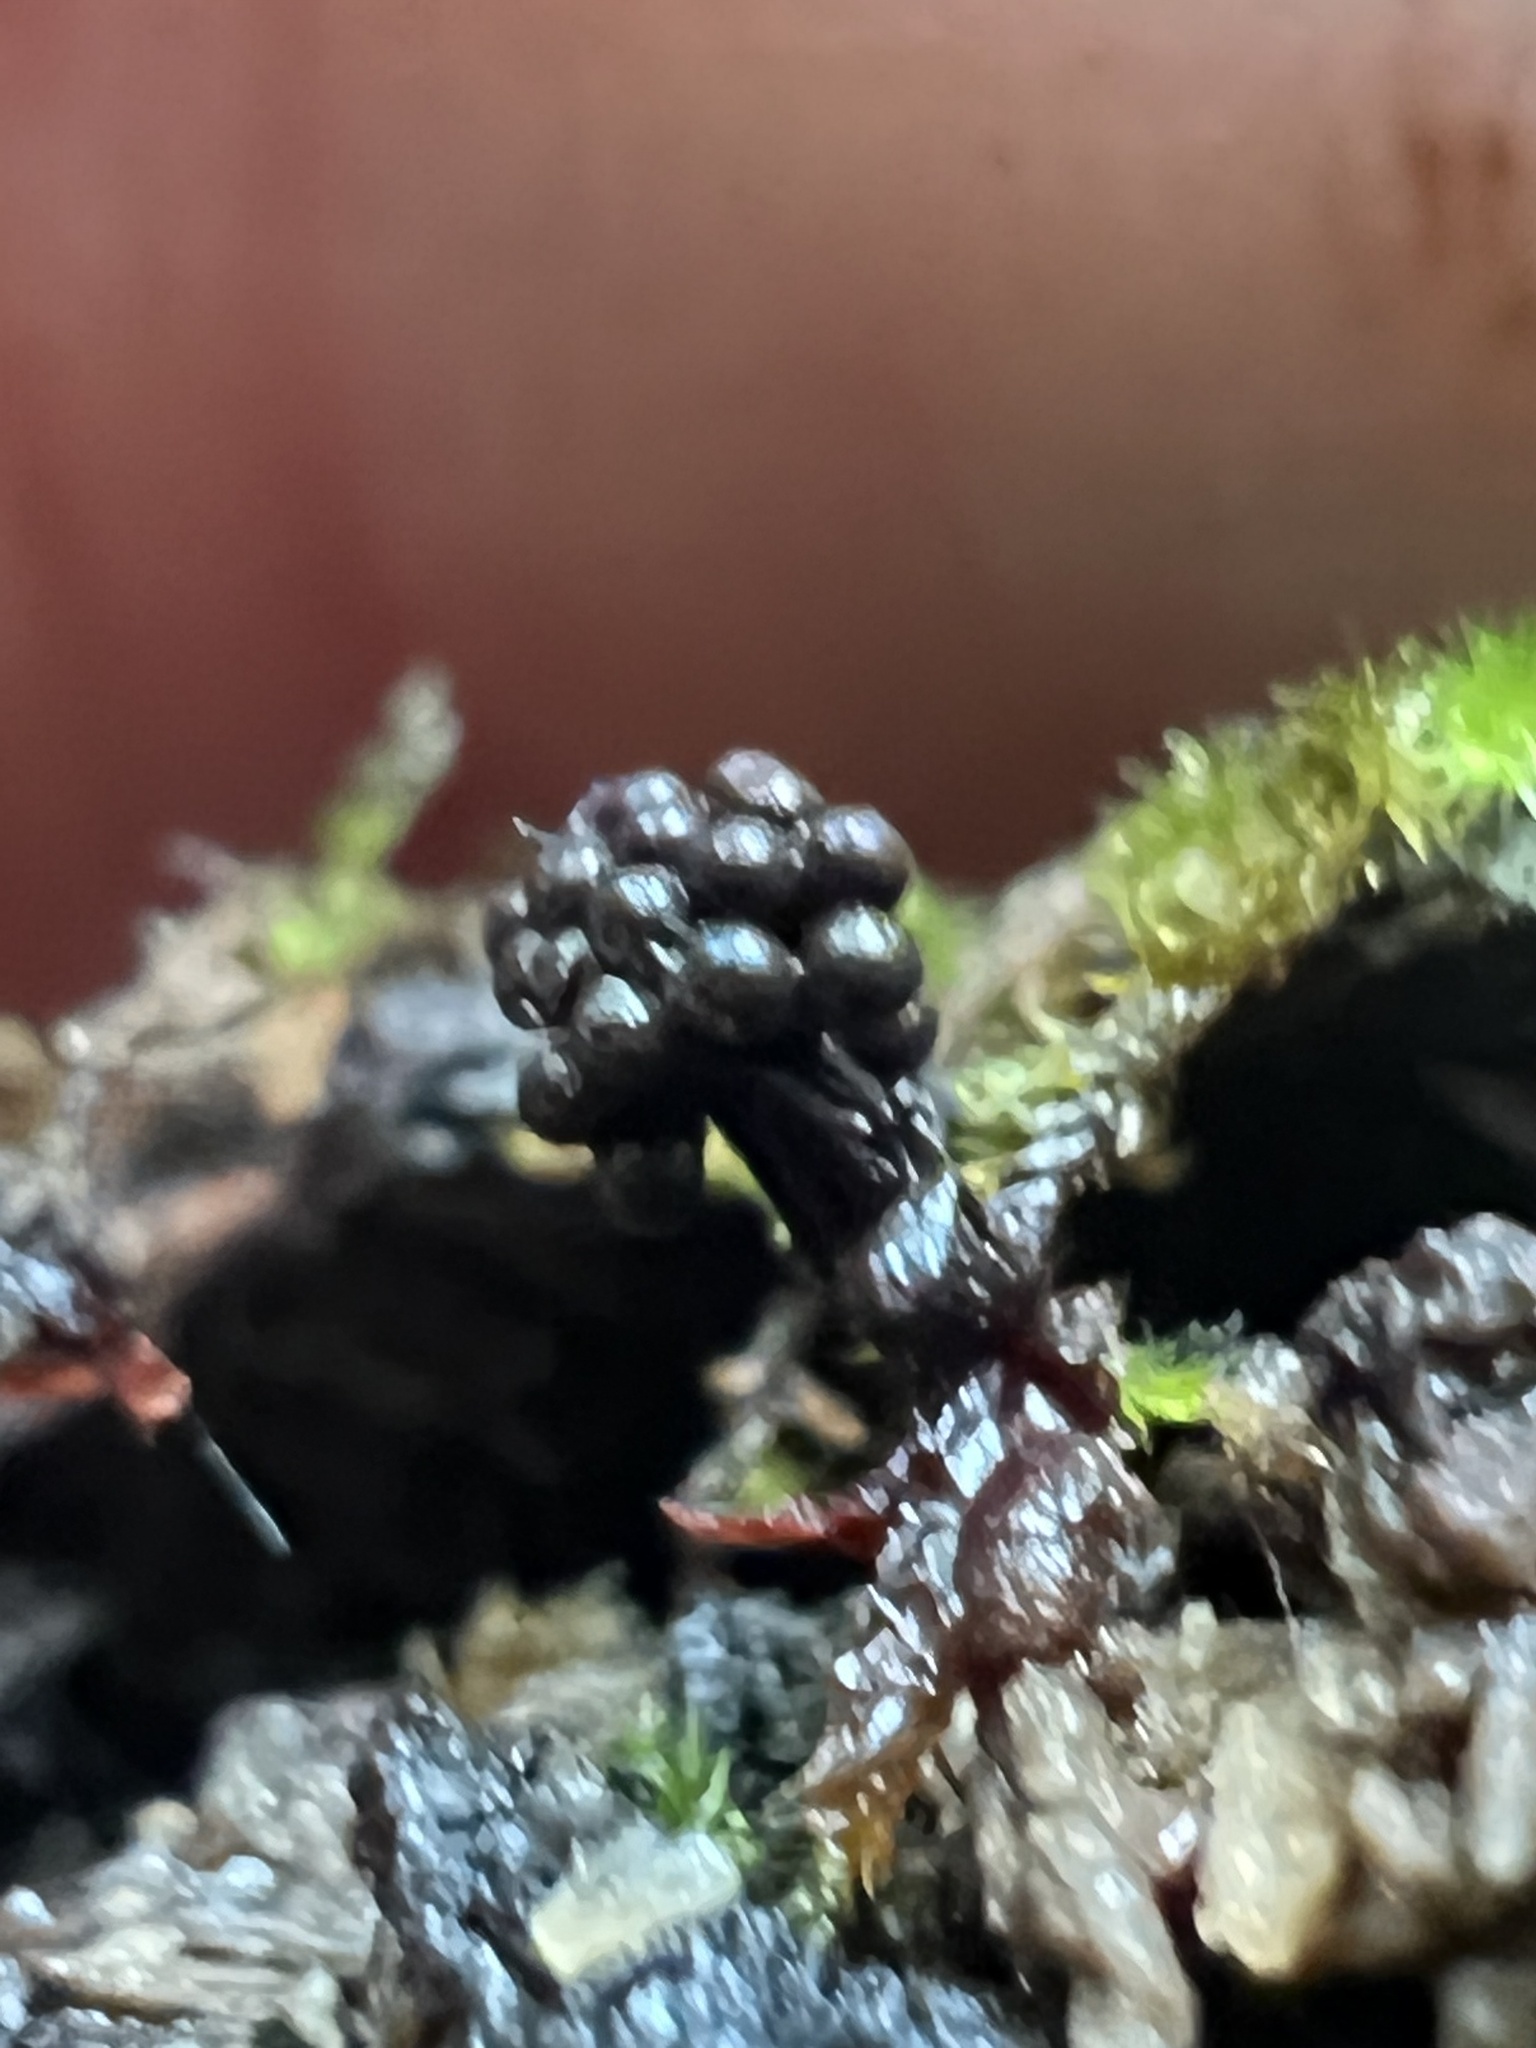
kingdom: Protozoa
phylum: Mycetozoa
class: Myxomycetes
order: Trichiales
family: Trichiaceae
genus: Metatrichia
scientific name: Metatrichia vesparia
